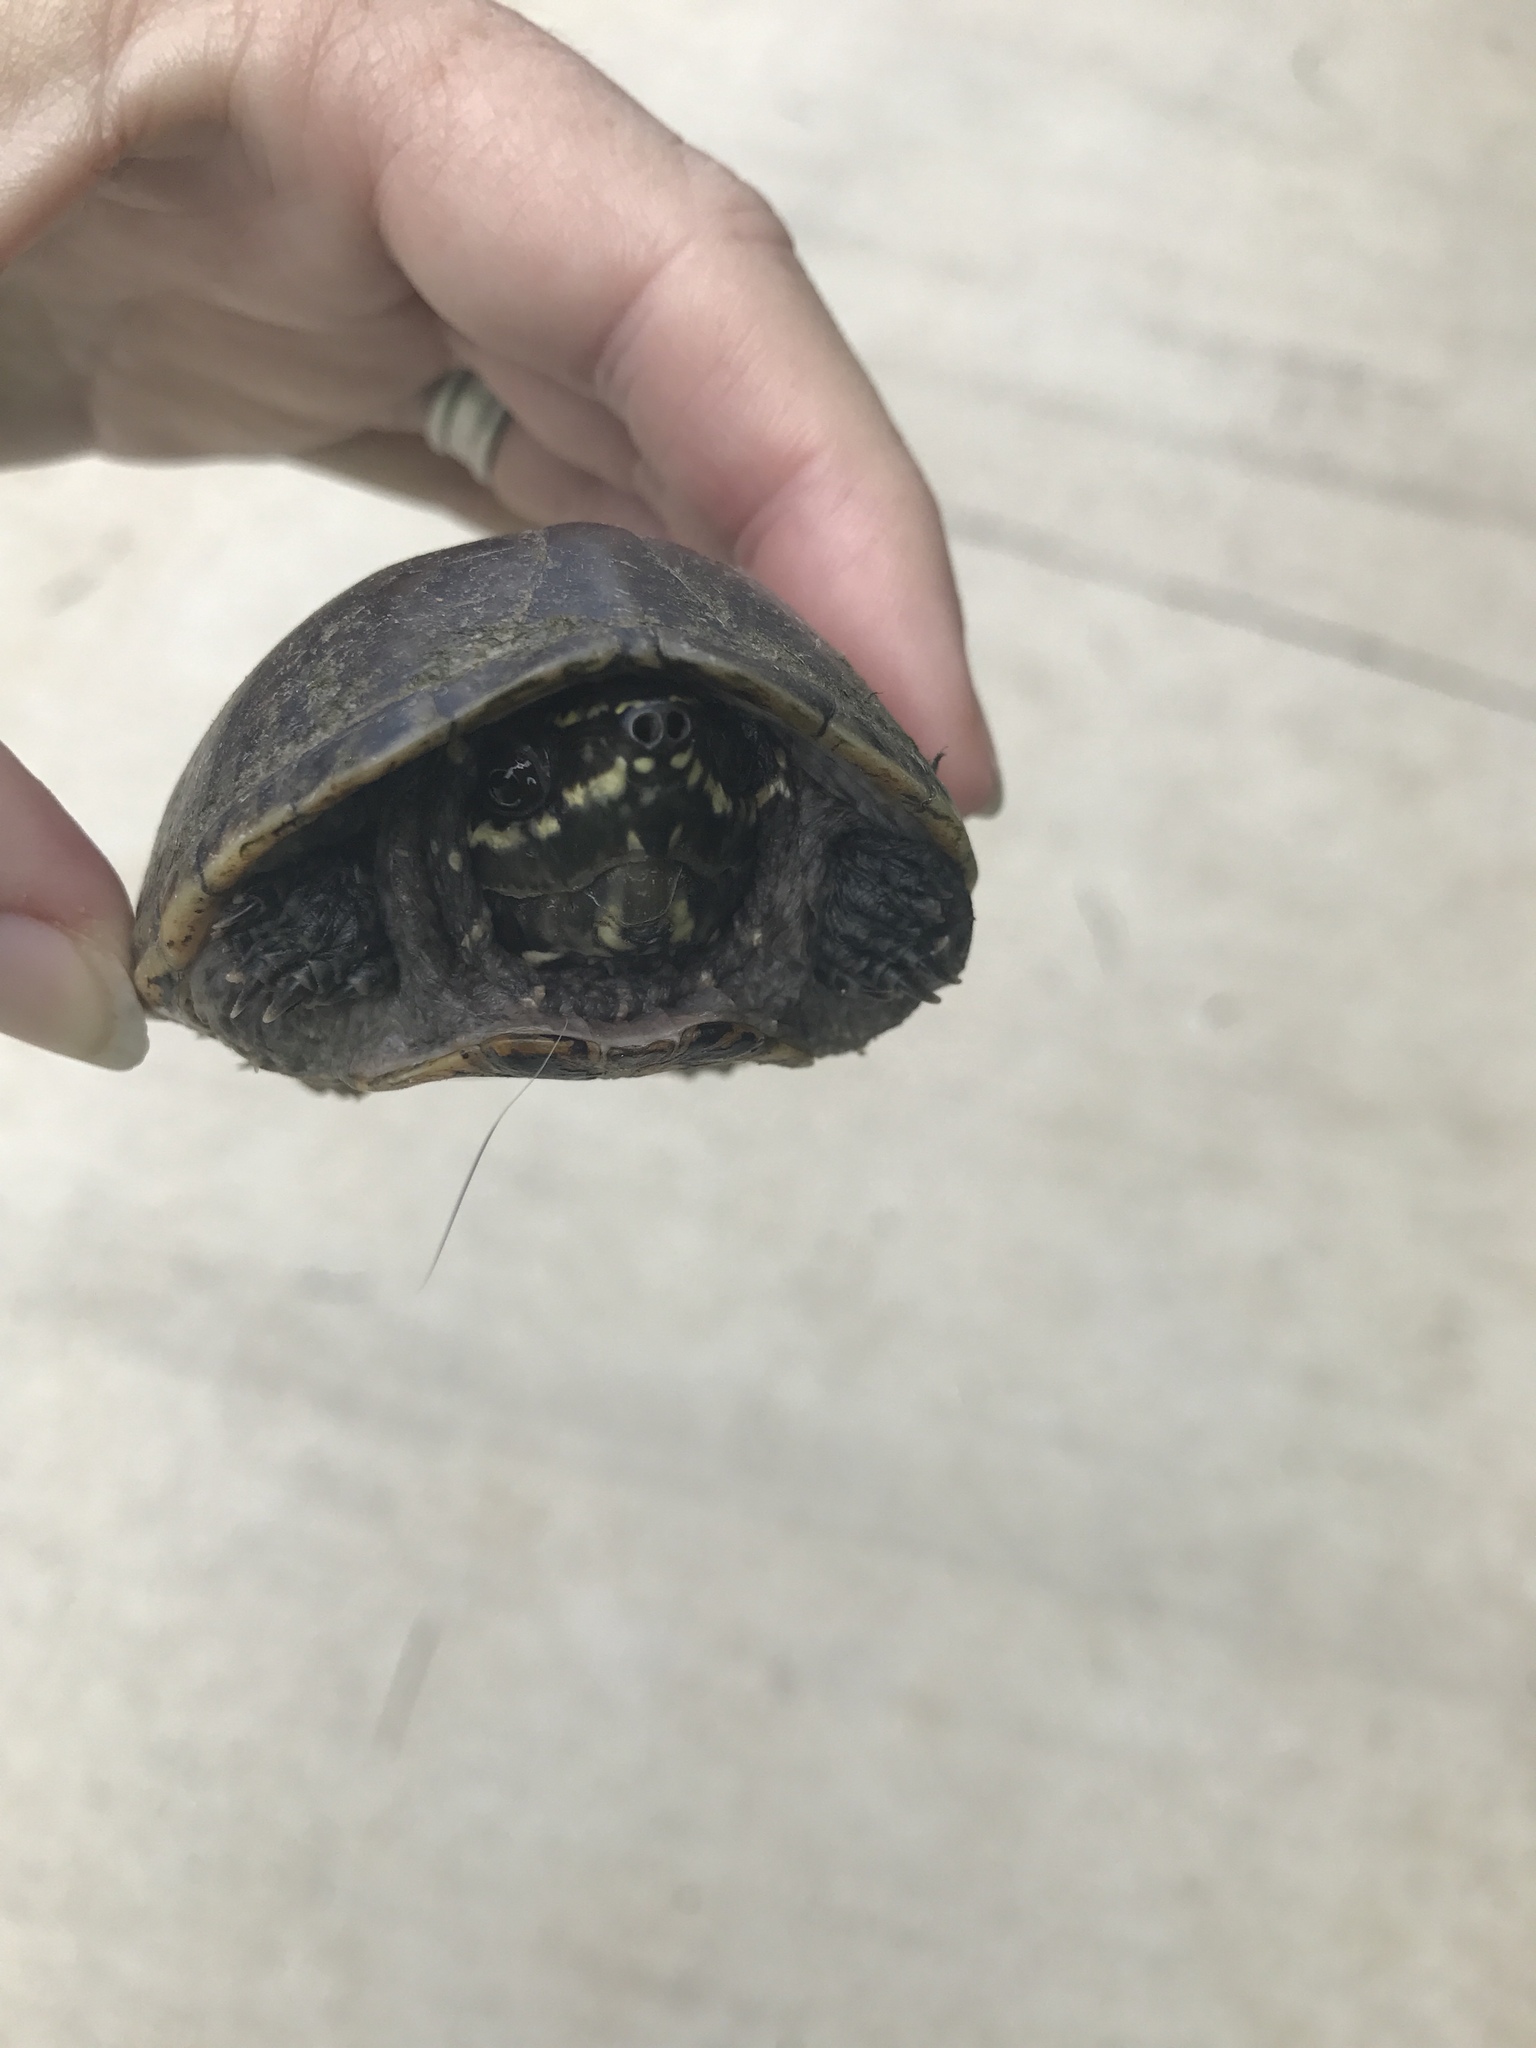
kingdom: Animalia
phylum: Chordata
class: Testudines
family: Kinosternidae
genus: Sternotherus
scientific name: Sternotherus odoratus
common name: Common musk turtle
